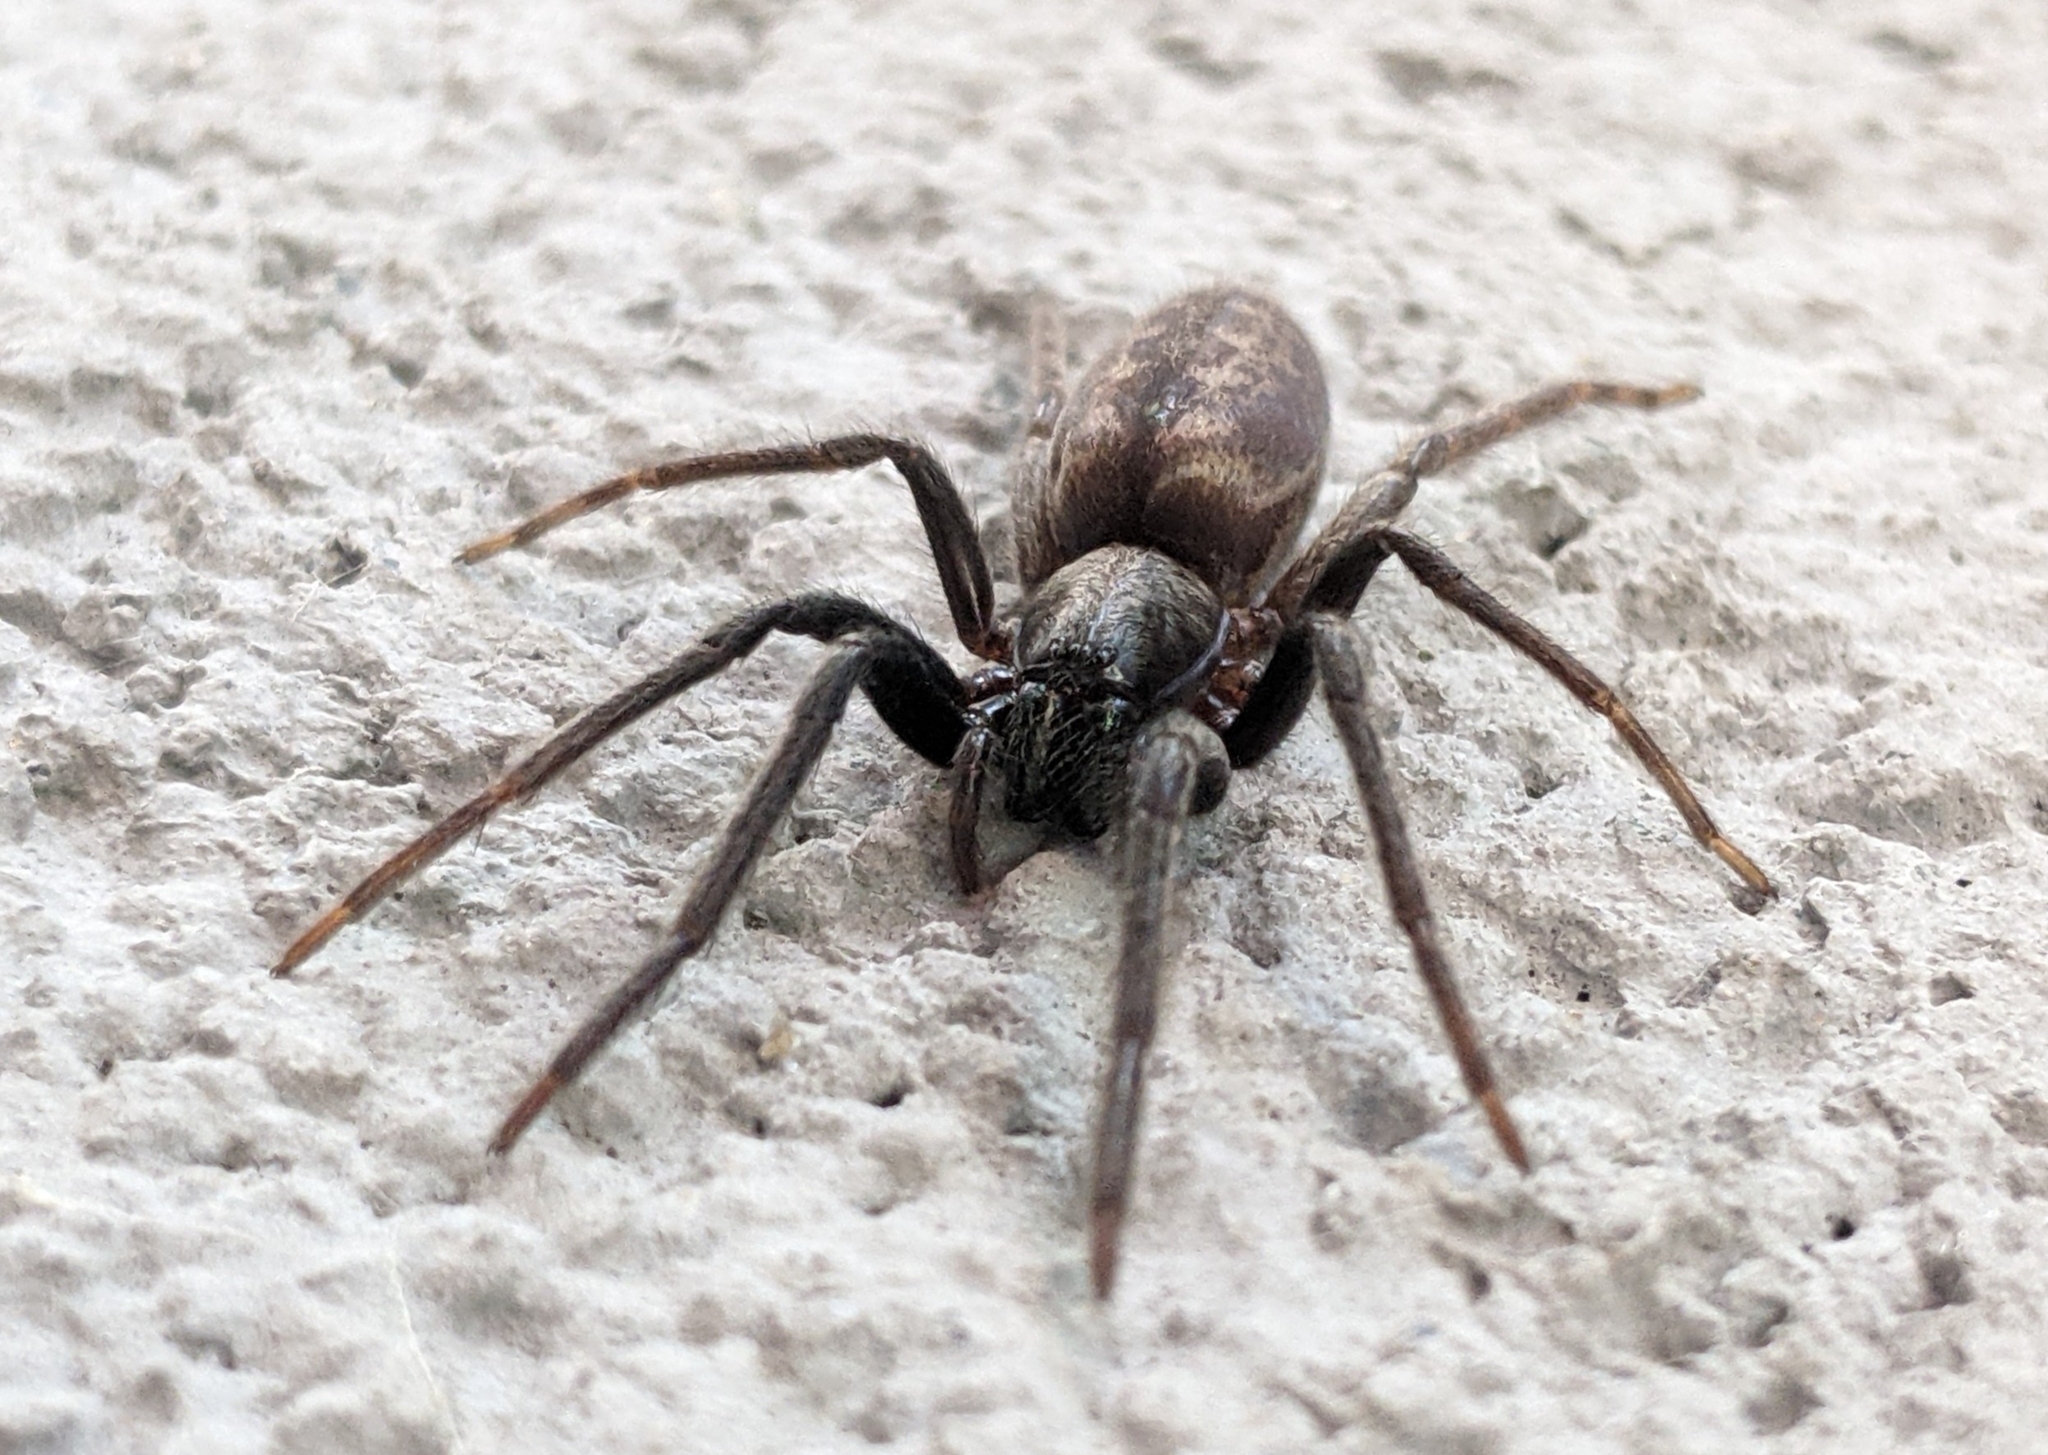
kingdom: Animalia
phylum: Arthropoda
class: Arachnida
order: Araneae
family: Segestriidae
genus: Segestria
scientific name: Segestria florentina
